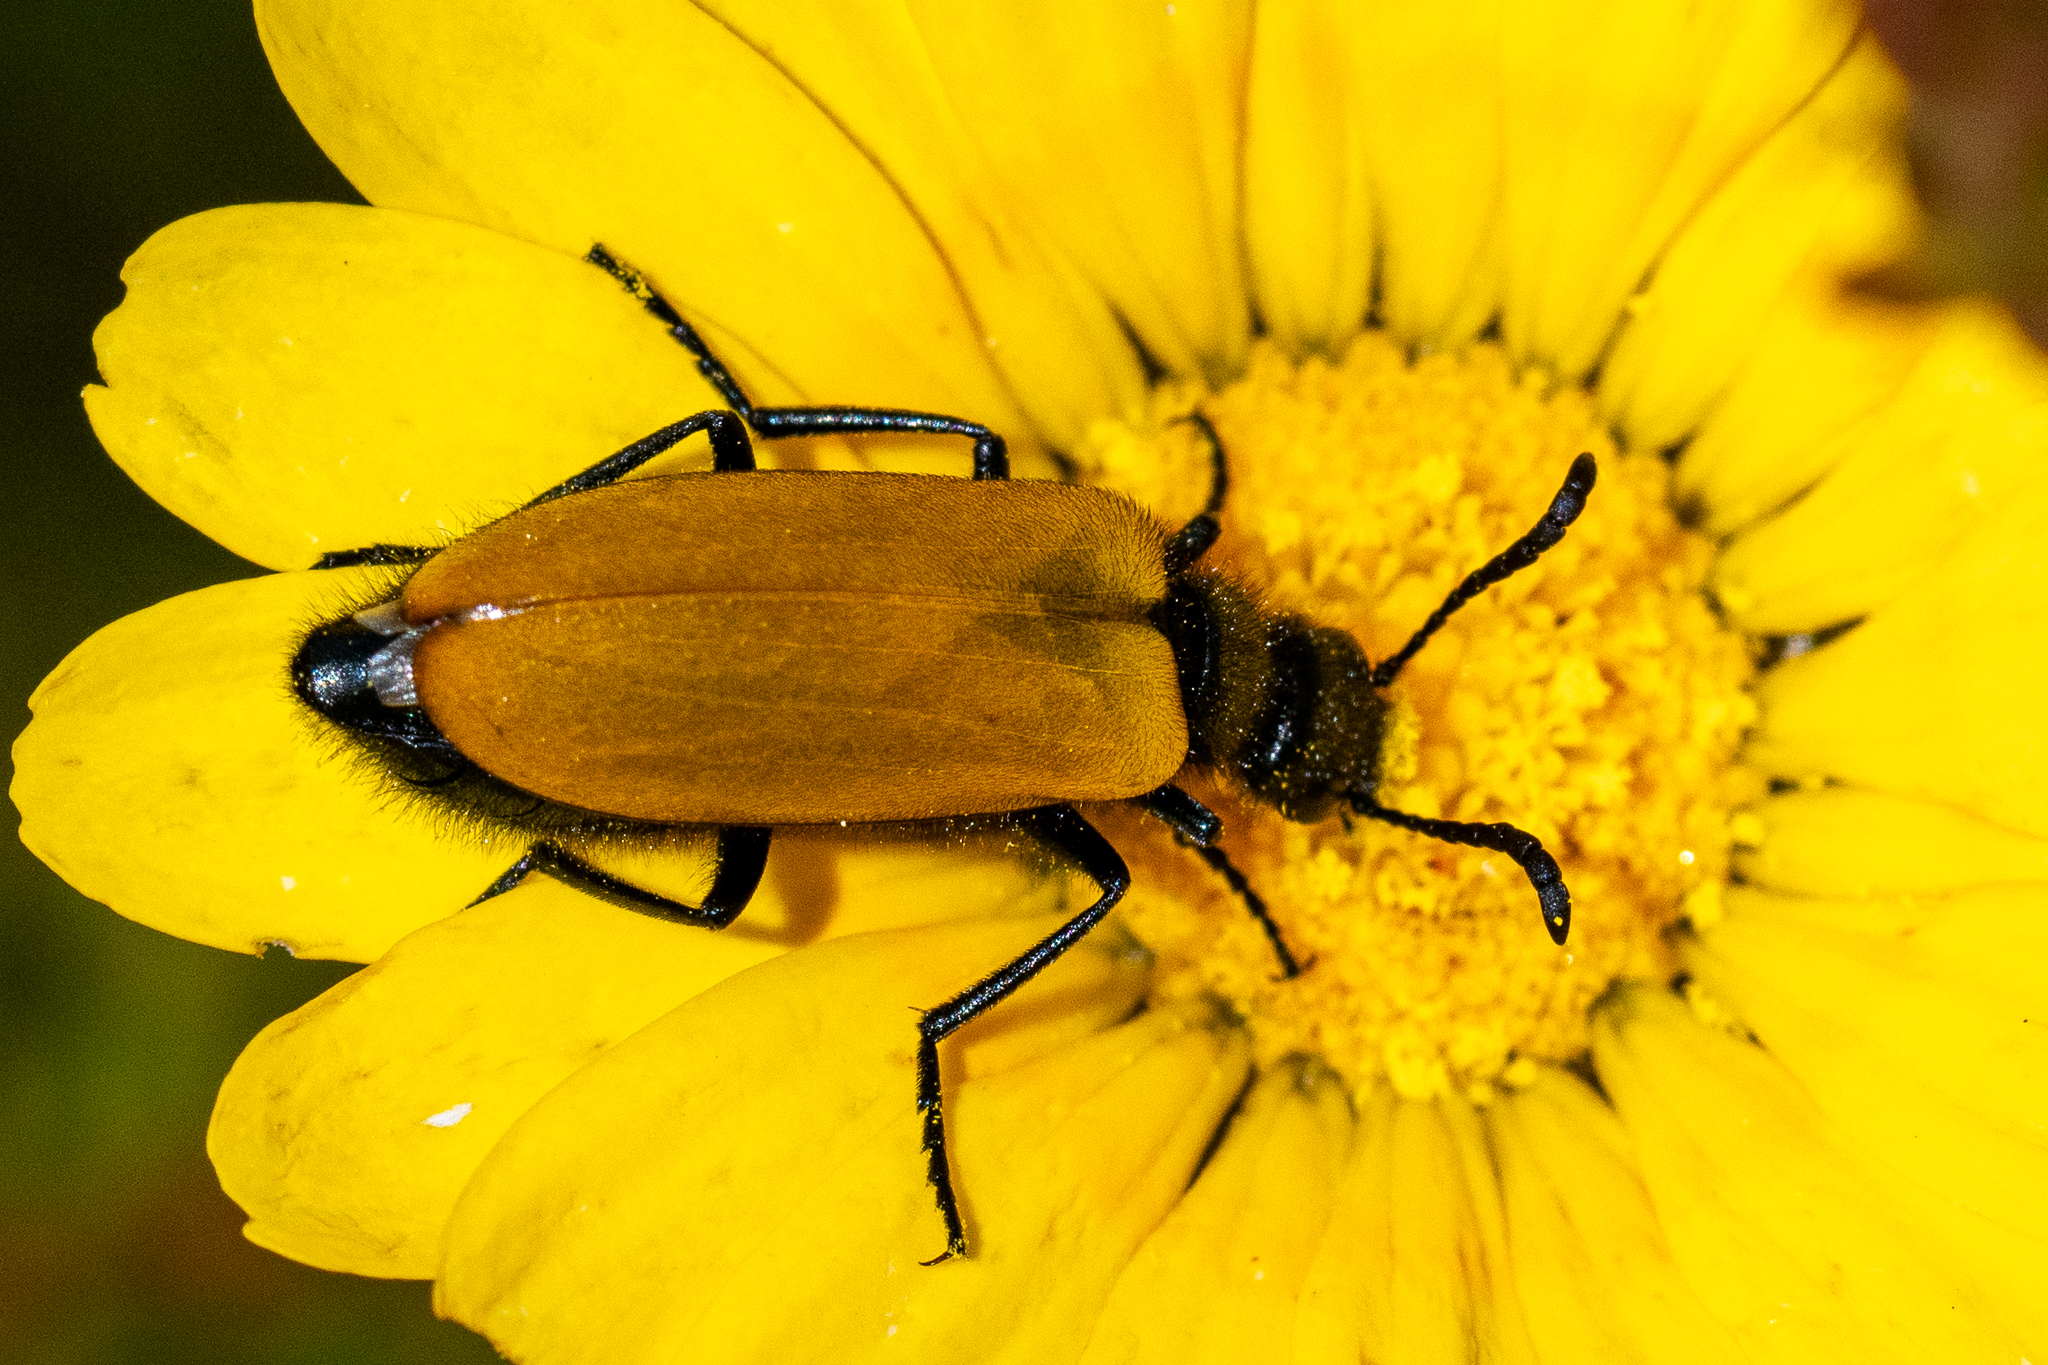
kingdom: Animalia
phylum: Arthropoda
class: Insecta
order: Coleoptera
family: Meloidae
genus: Prolytta
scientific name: Prolytta
